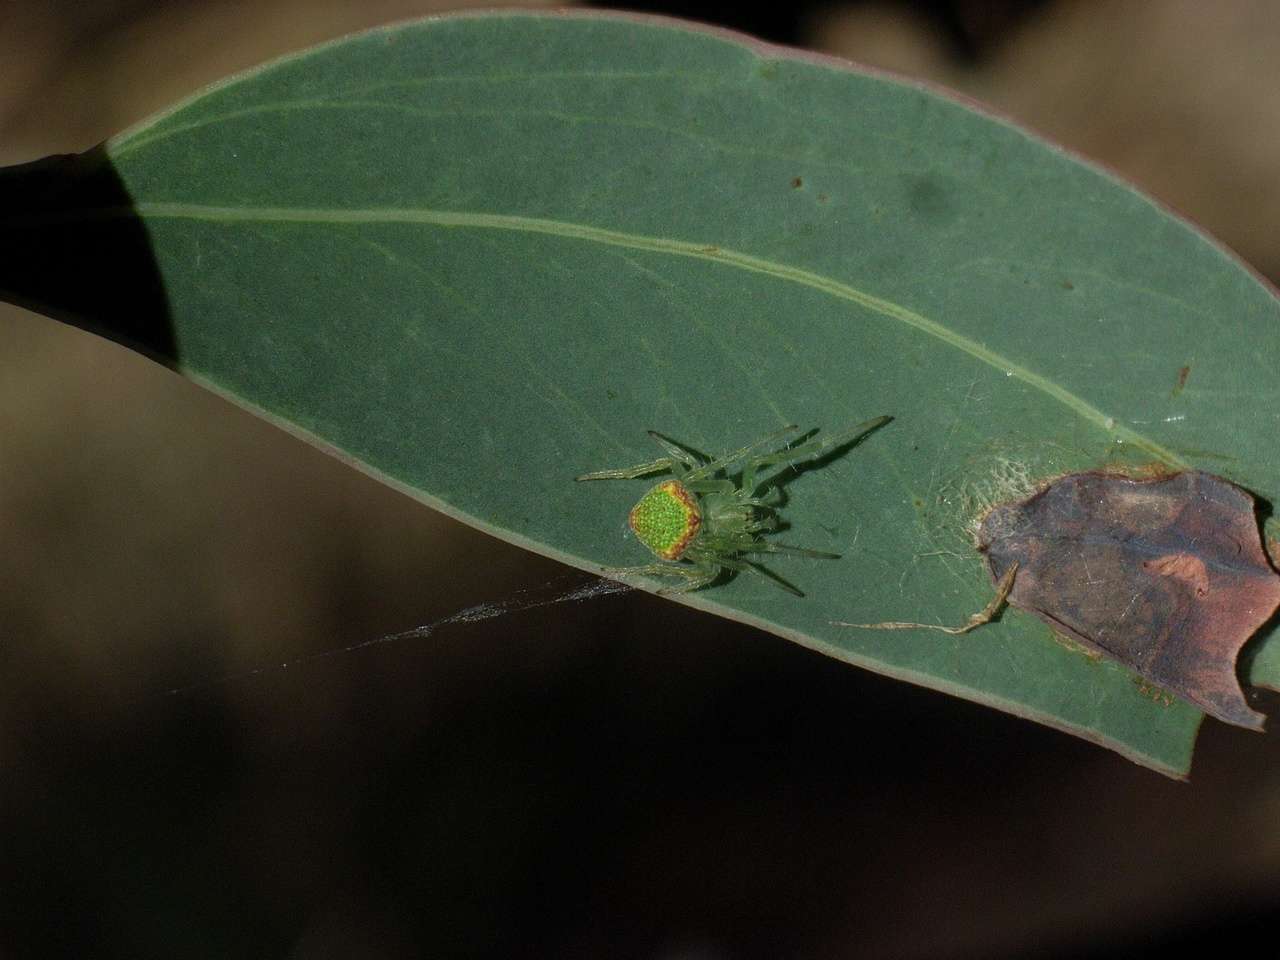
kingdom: Animalia
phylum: Arthropoda
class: Arachnida
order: Araneae
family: Araneidae
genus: Araneus
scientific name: Araneus circulissparsus
